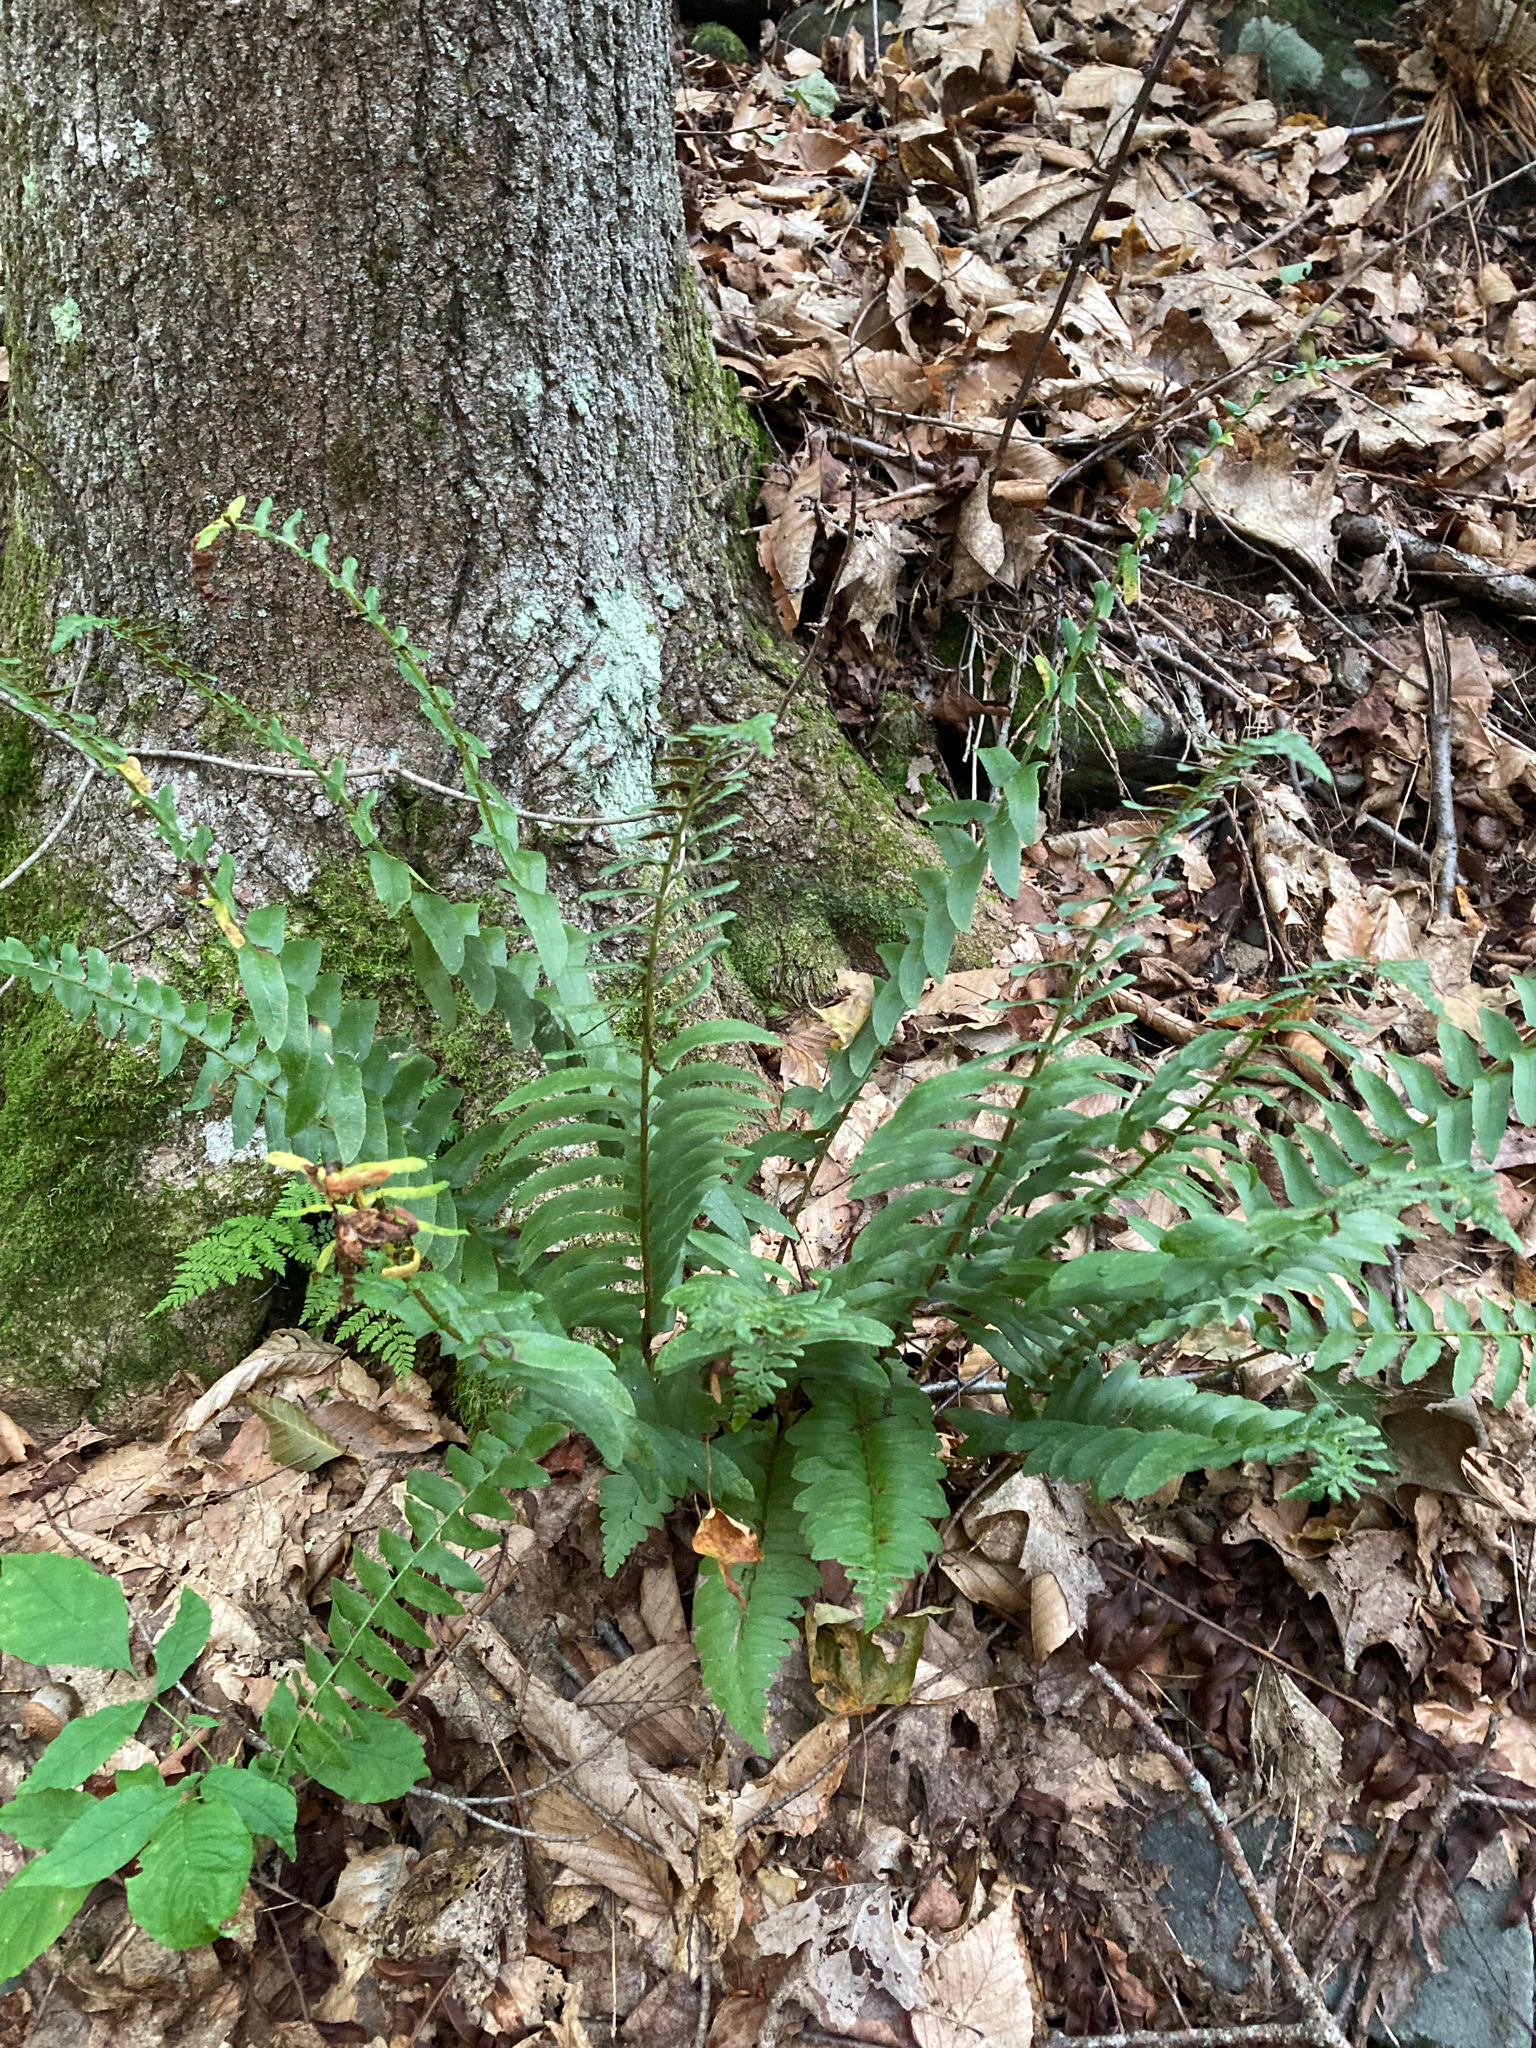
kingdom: Plantae
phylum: Tracheophyta
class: Polypodiopsida
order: Polypodiales
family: Dryopteridaceae
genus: Polystichum
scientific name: Polystichum acrostichoides
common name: Christmas fern
